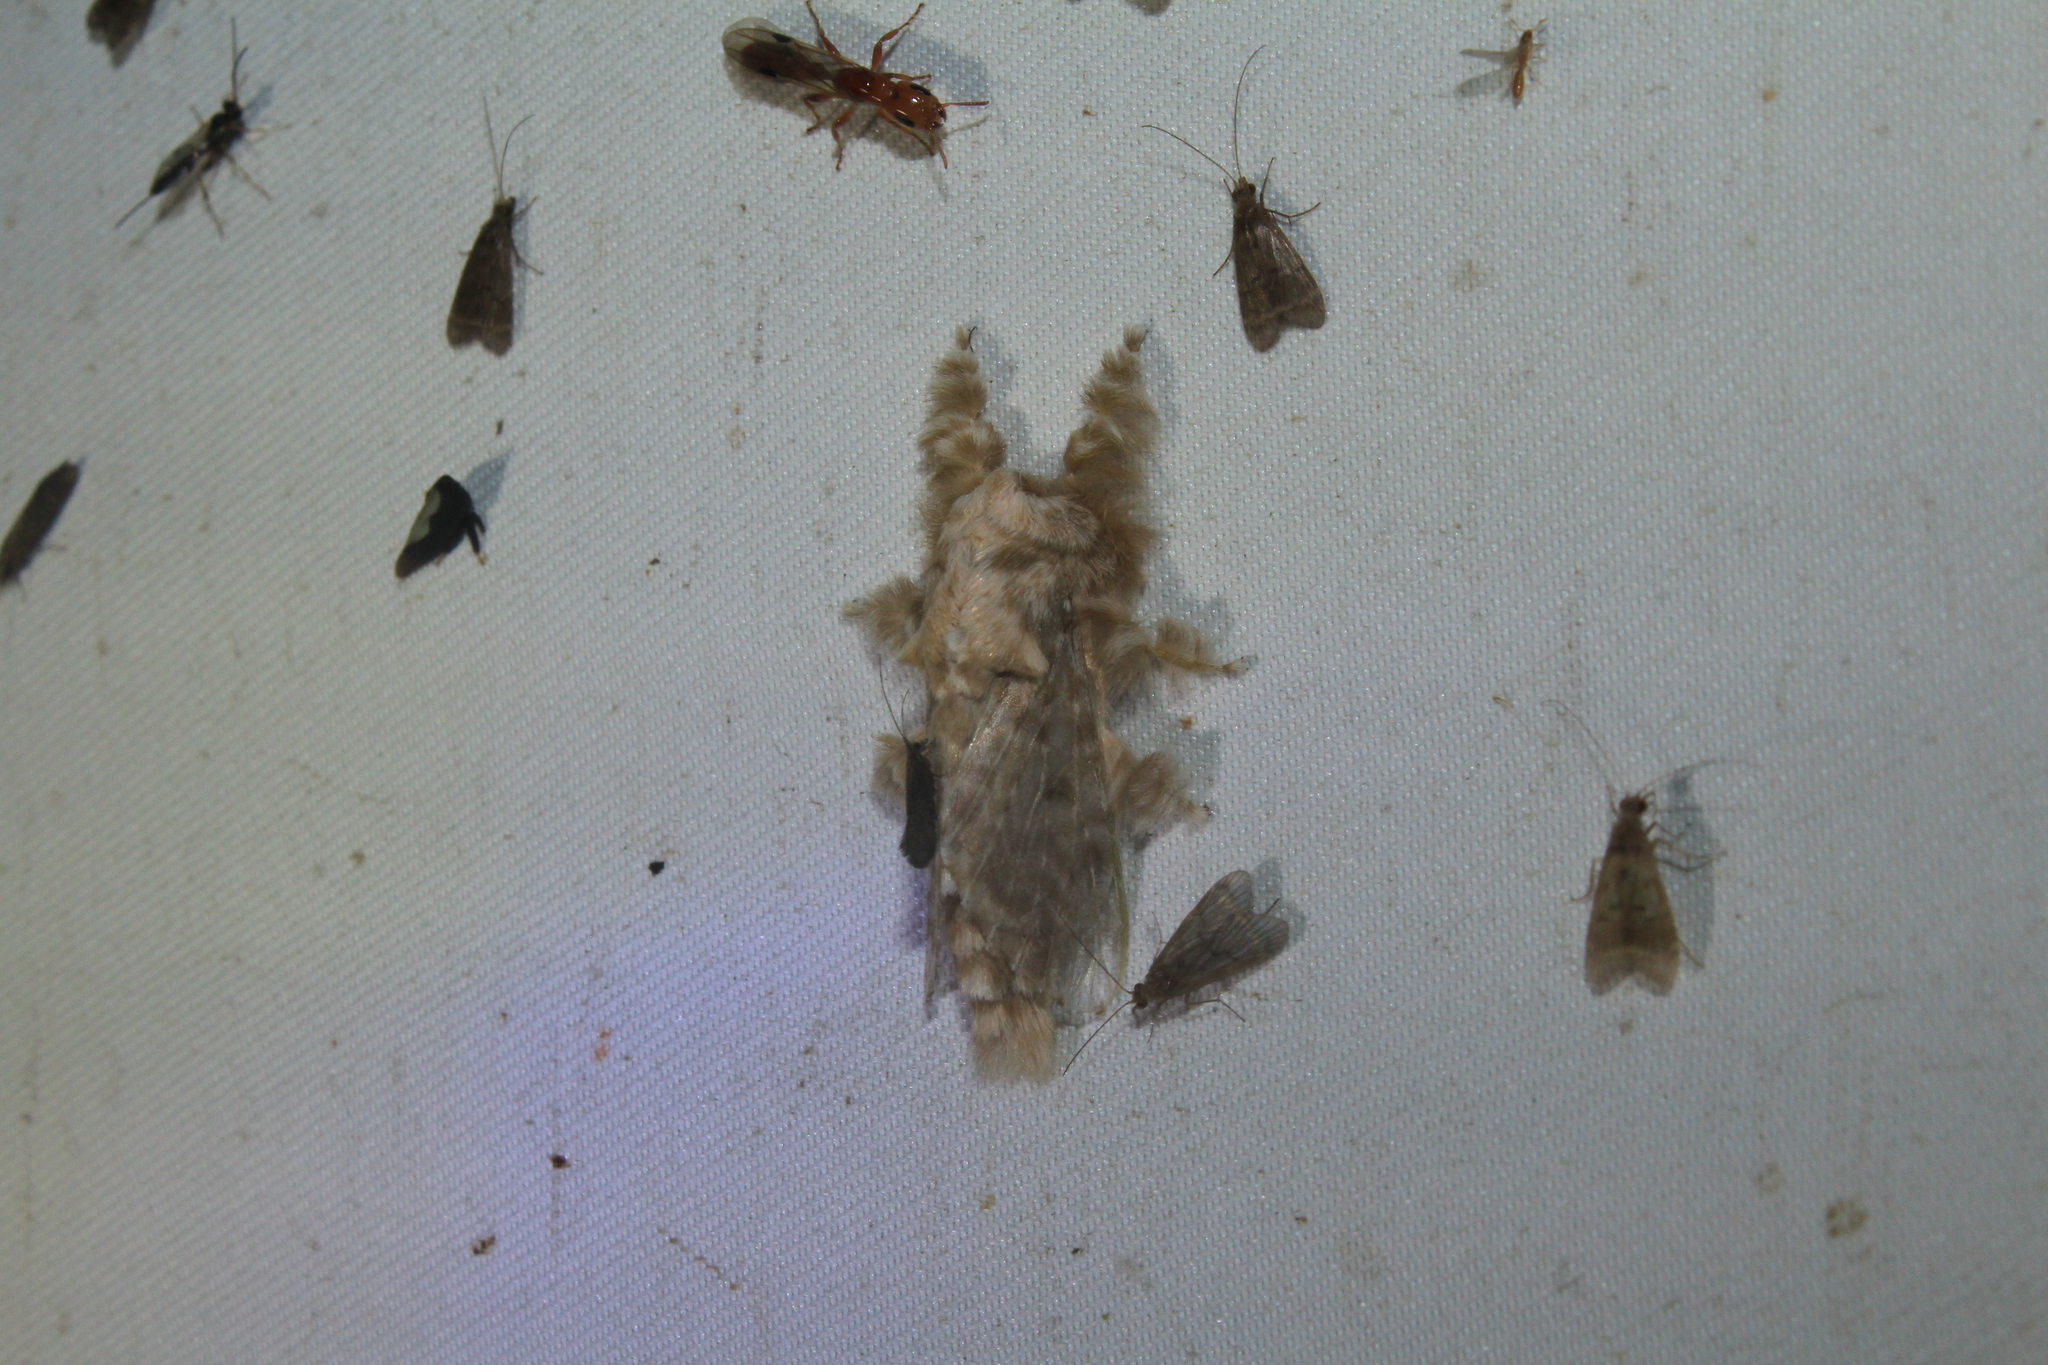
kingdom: Animalia
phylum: Arthropoda
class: Insecta
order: Lepidoptera
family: Lasiocampidae
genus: Titya
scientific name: Titya rivulosa
